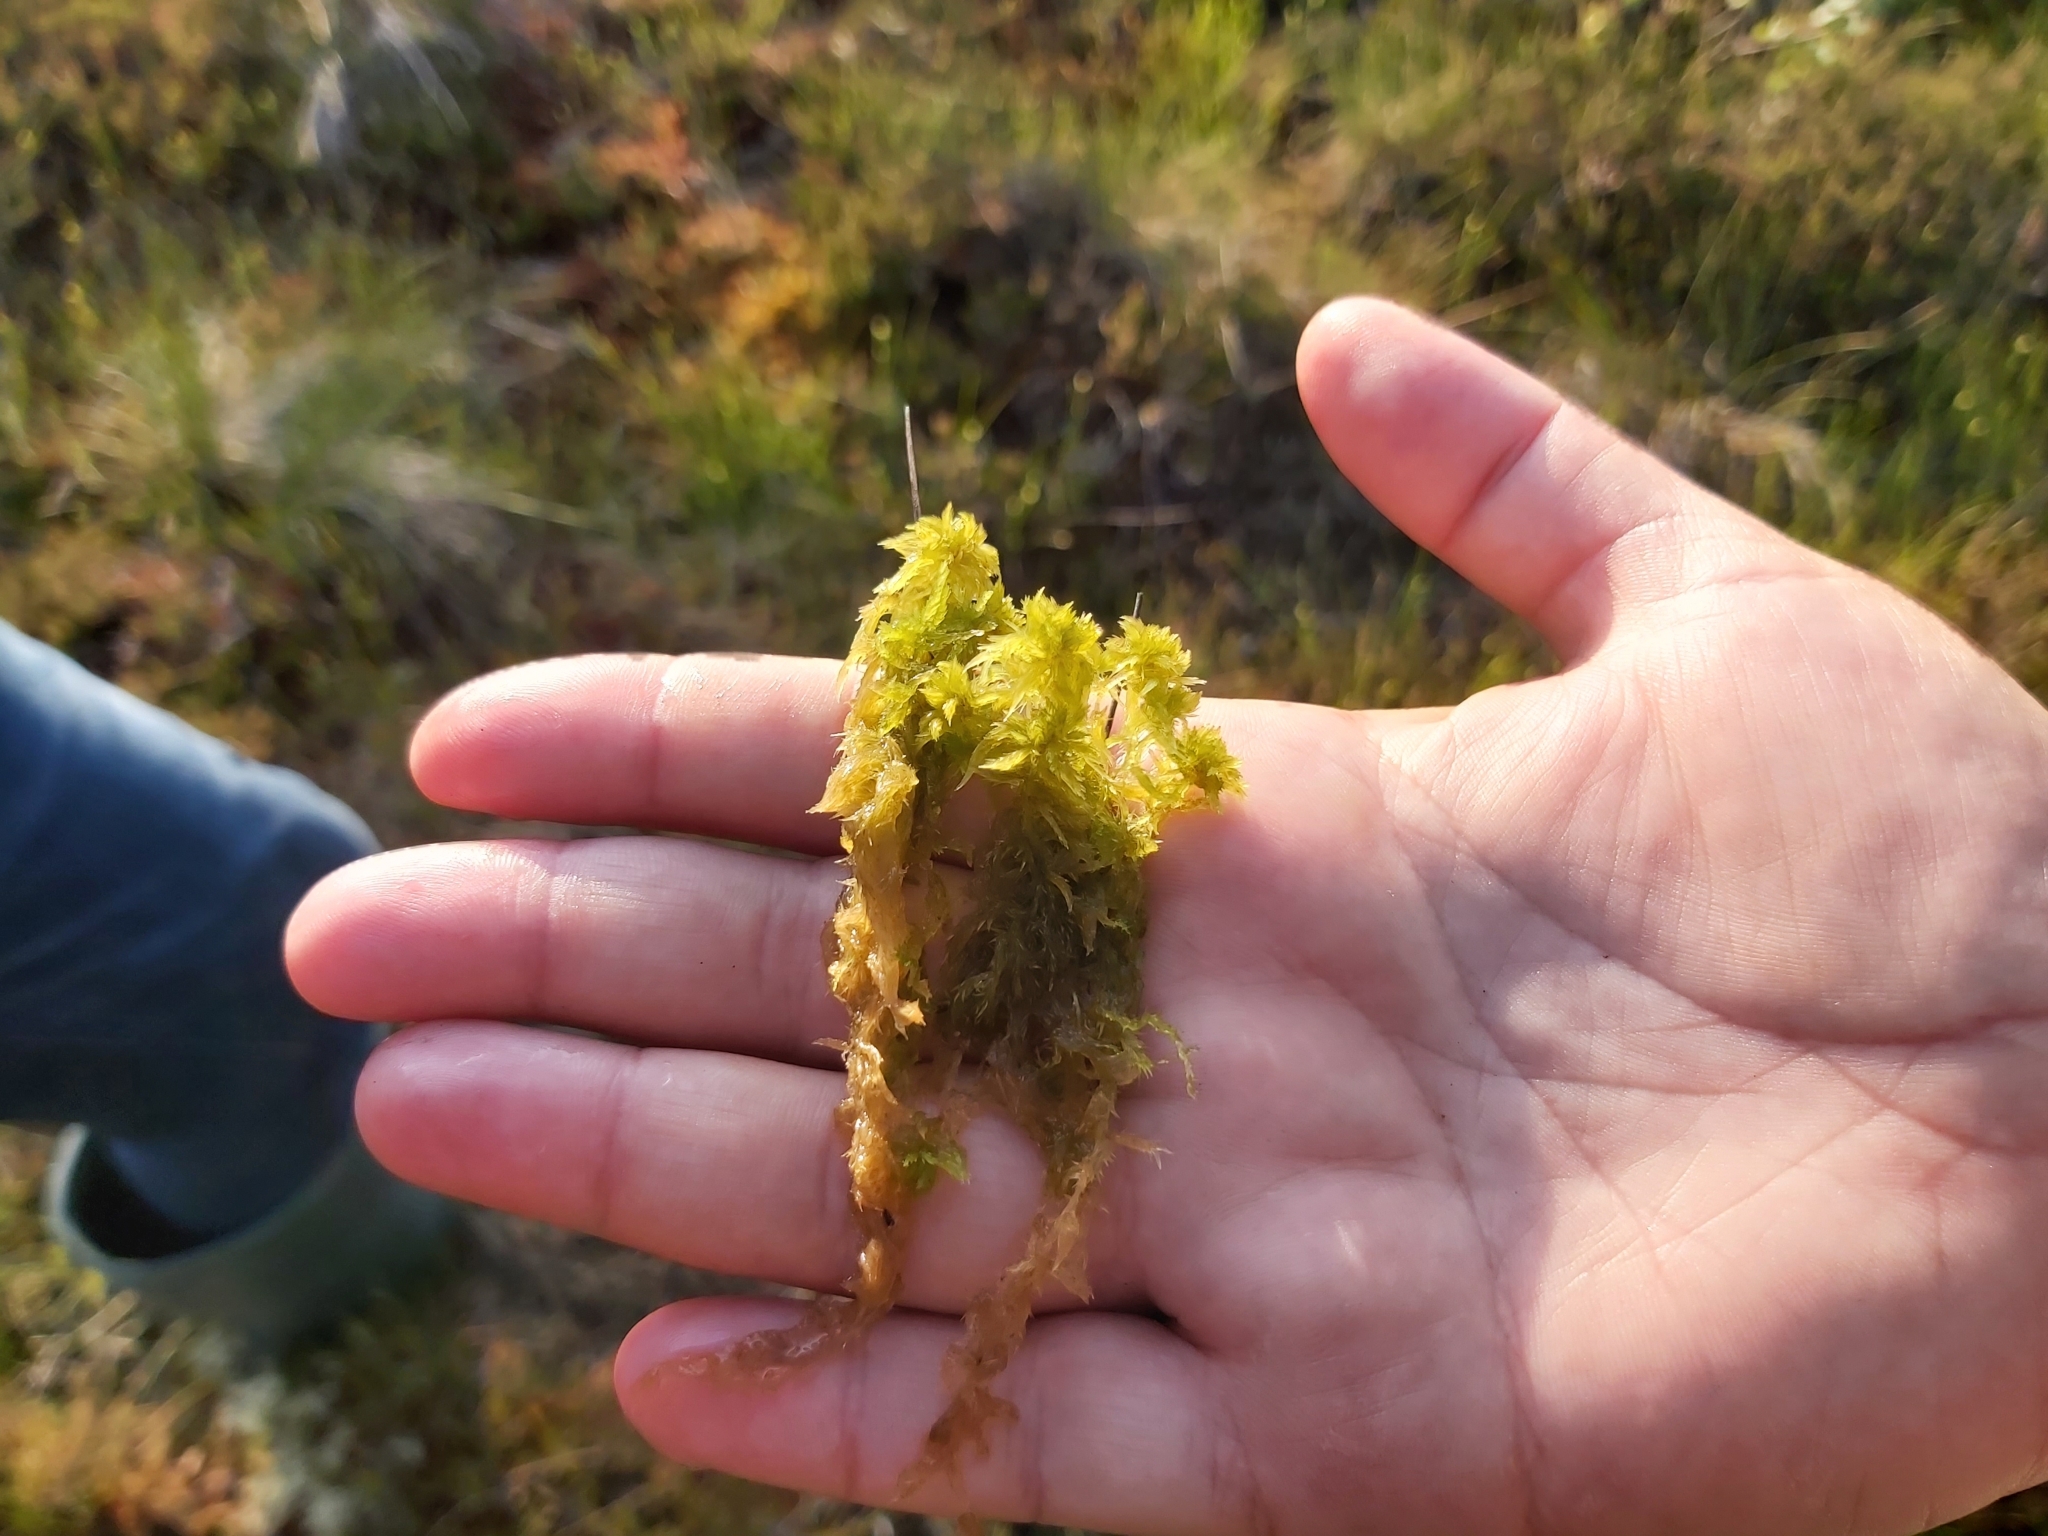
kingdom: Plantae
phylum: Bryophyta
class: Sphagnopsida
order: Sphagnales
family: Sphagnaceae
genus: Sphagnum
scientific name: Sphagnum cuspidatum
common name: Feathery peat moss
